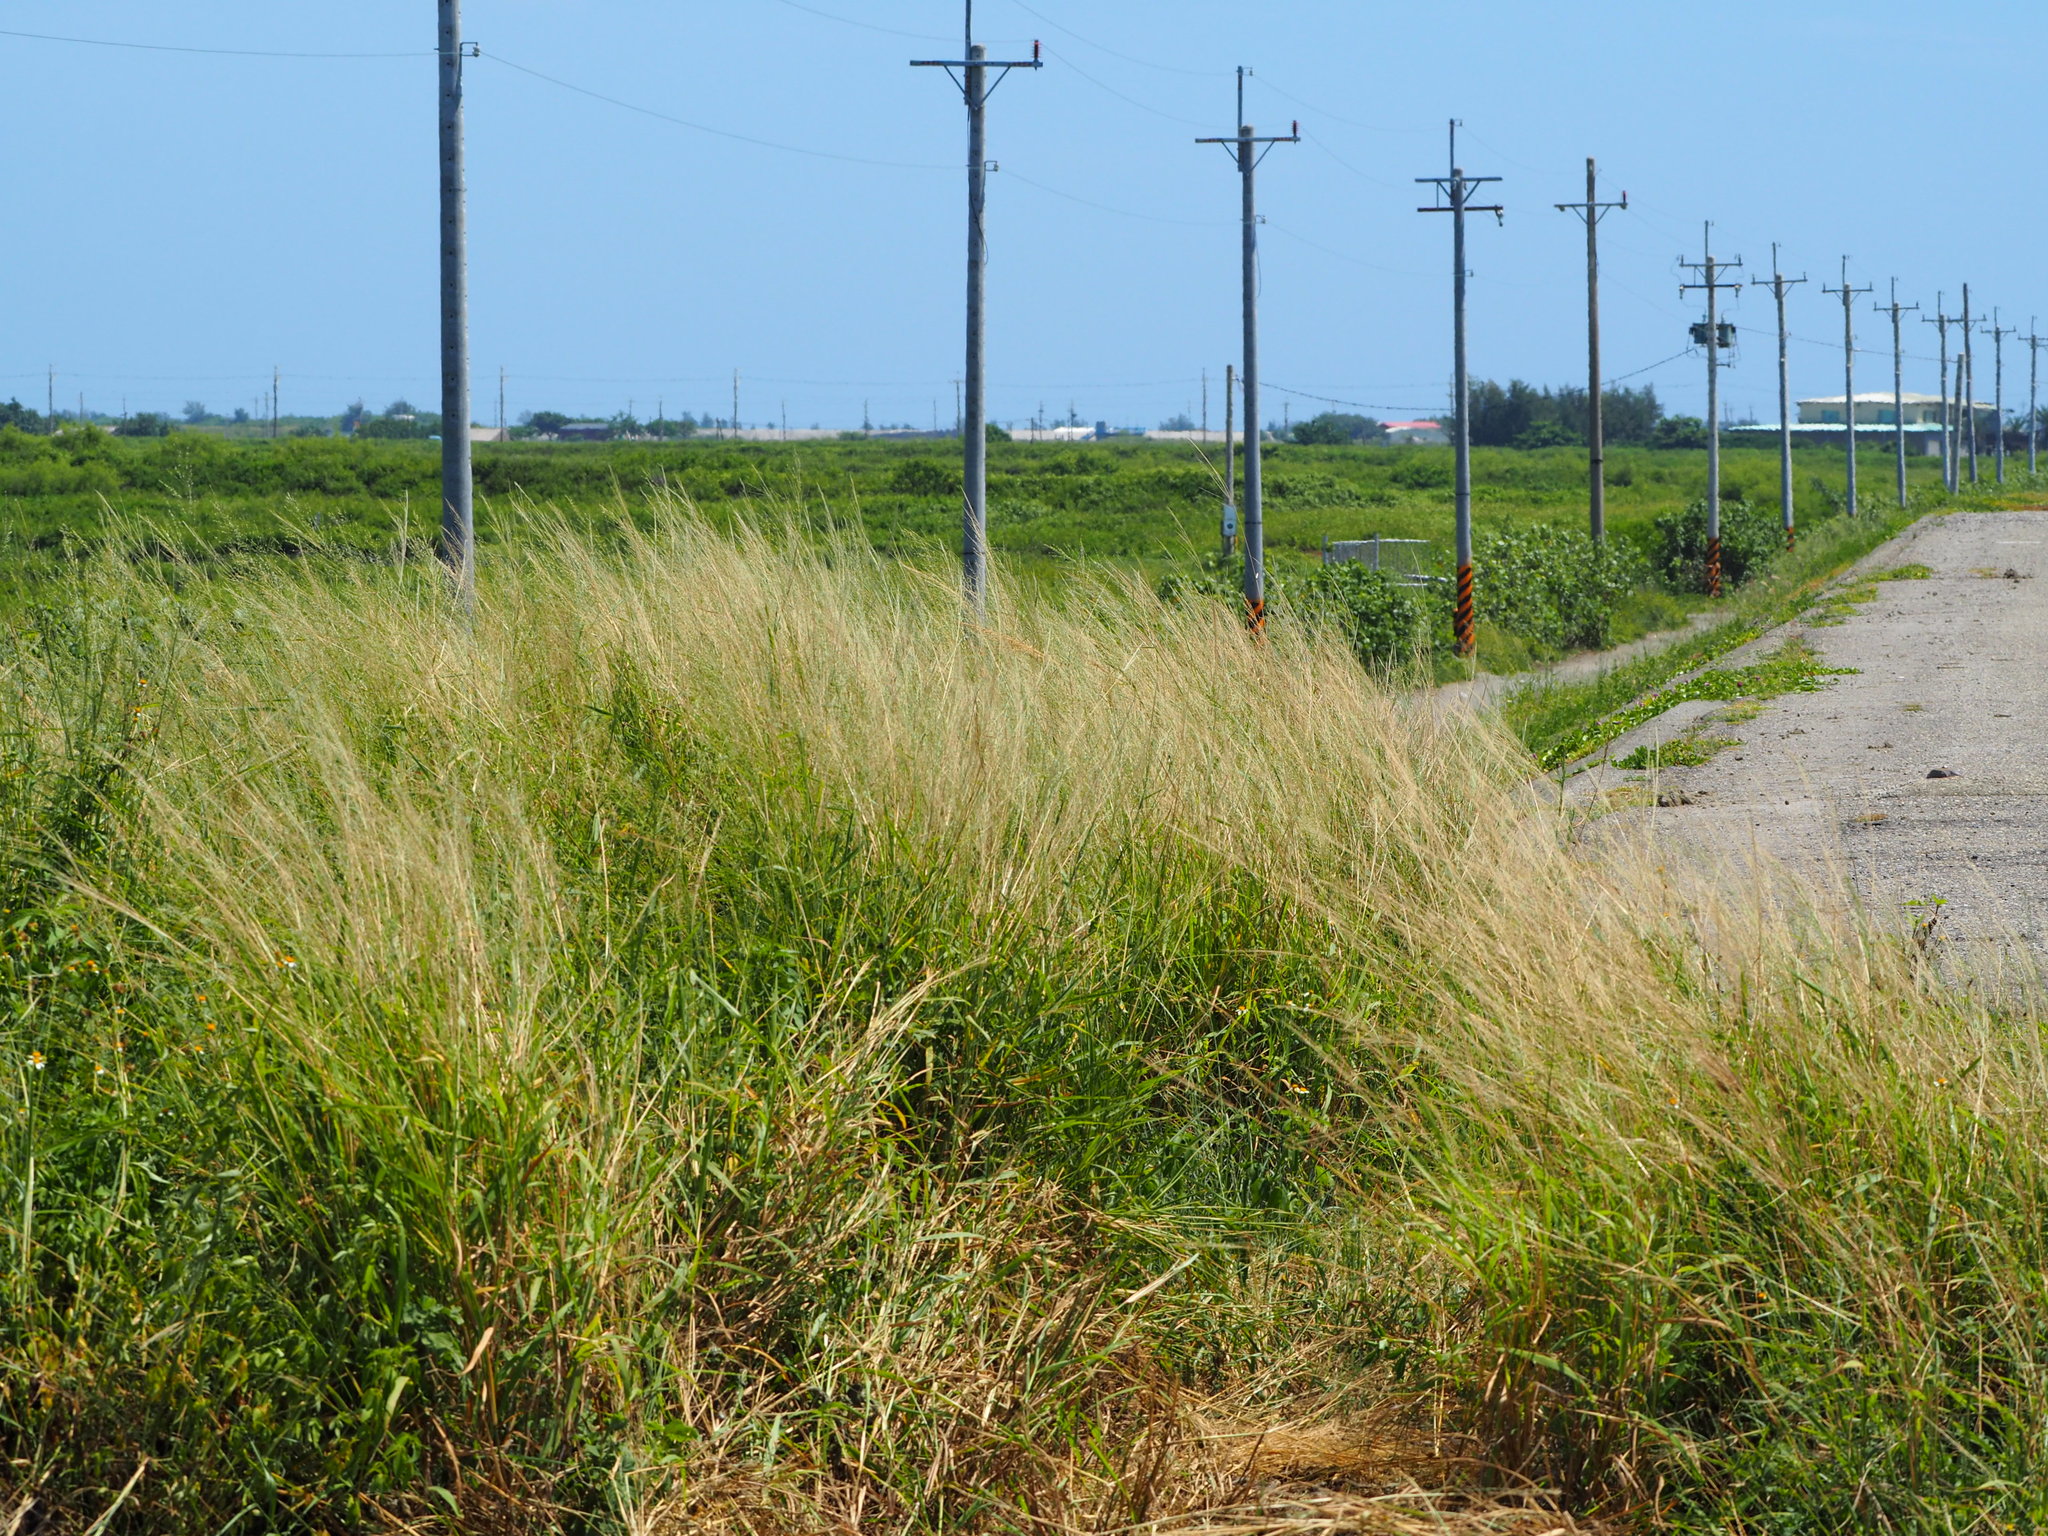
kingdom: Plantae
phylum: Tracheophyta
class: Liliopsida
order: Poales
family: Poaceae
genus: Megathyrsus
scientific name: Megathyrsus maximus
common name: Guineagrass
